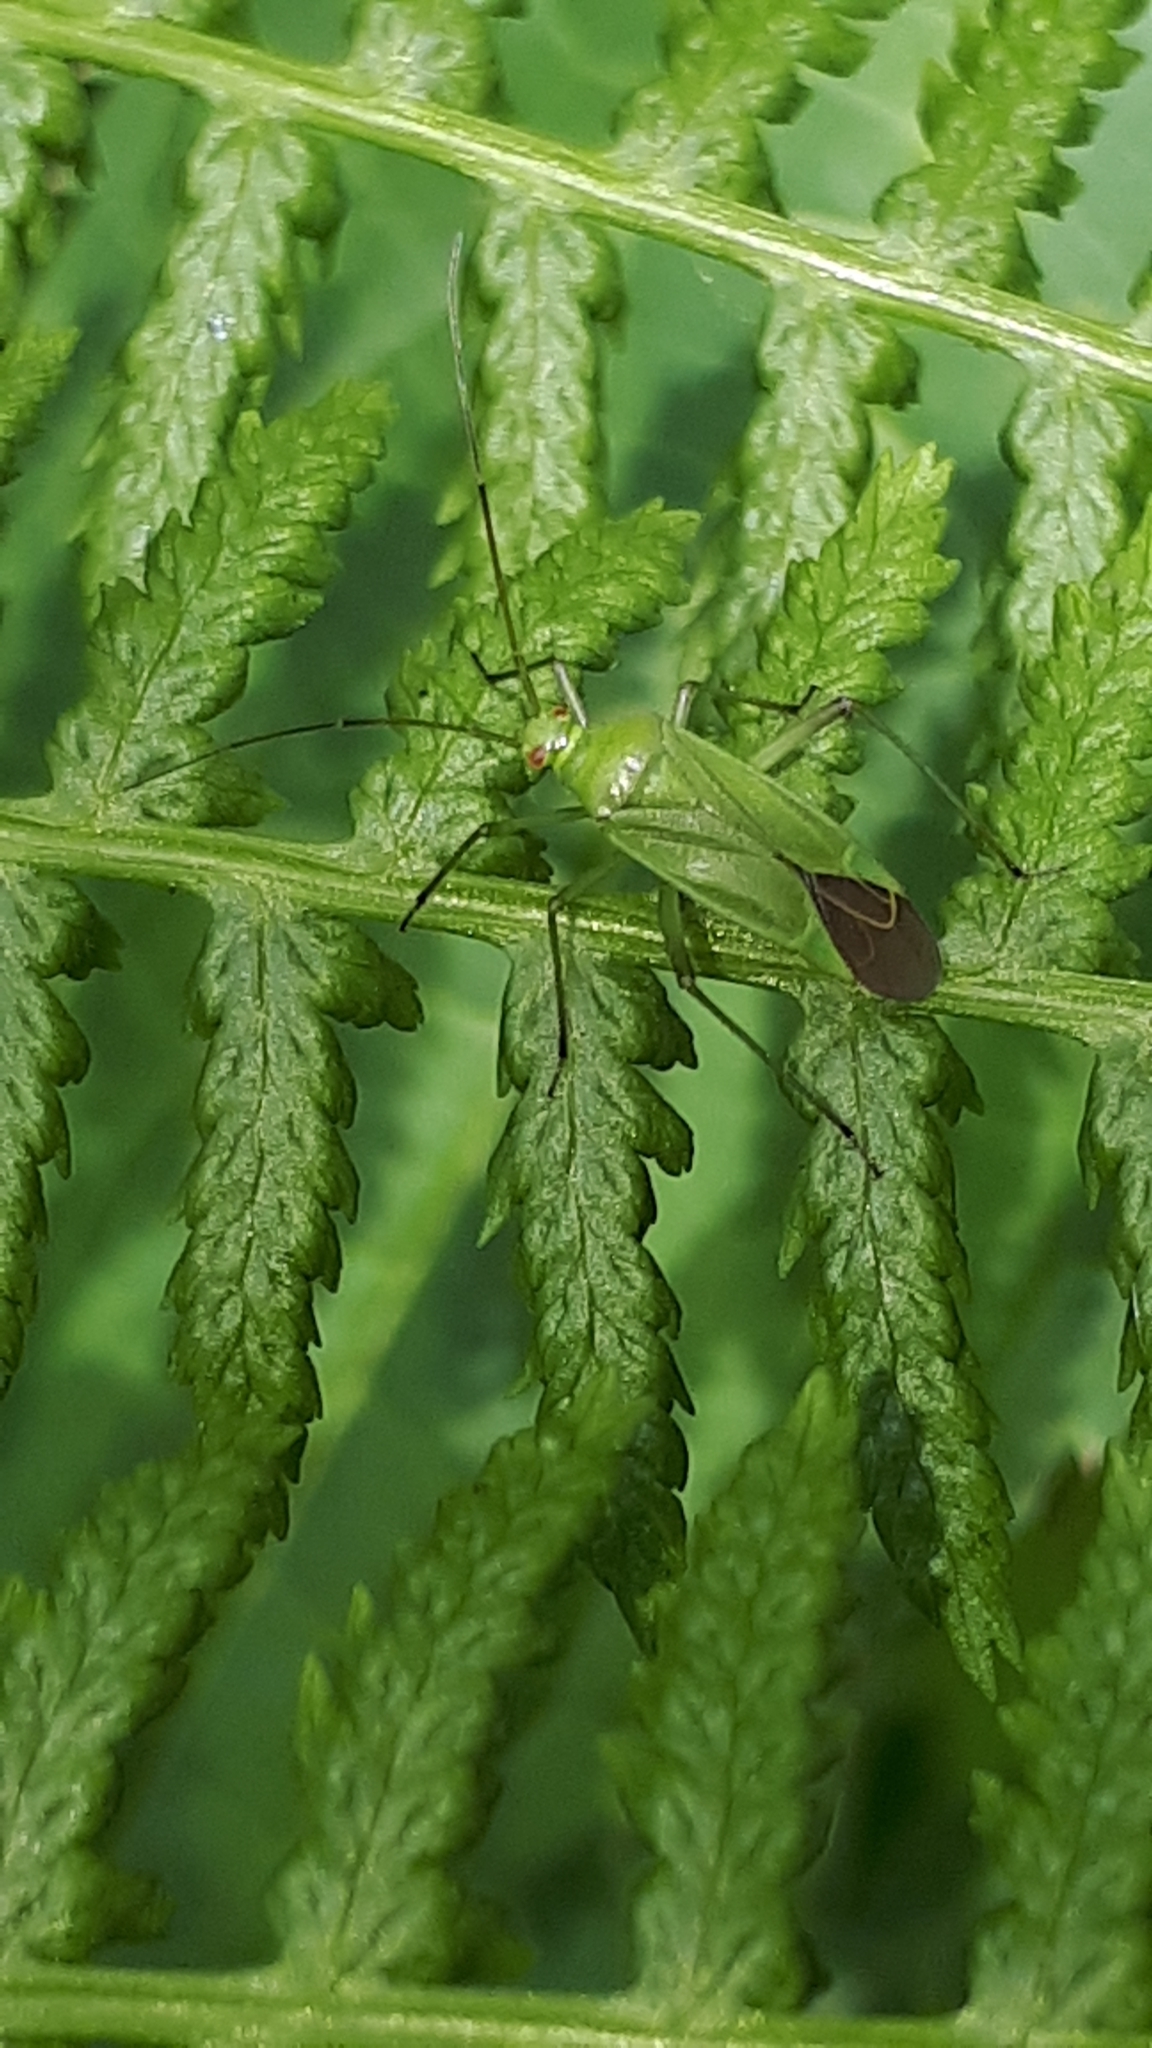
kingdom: Animalia
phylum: Arthropoda
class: Insecta
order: Hemiptera
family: Miridae
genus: Calocoris
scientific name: Calocoris alpestris
